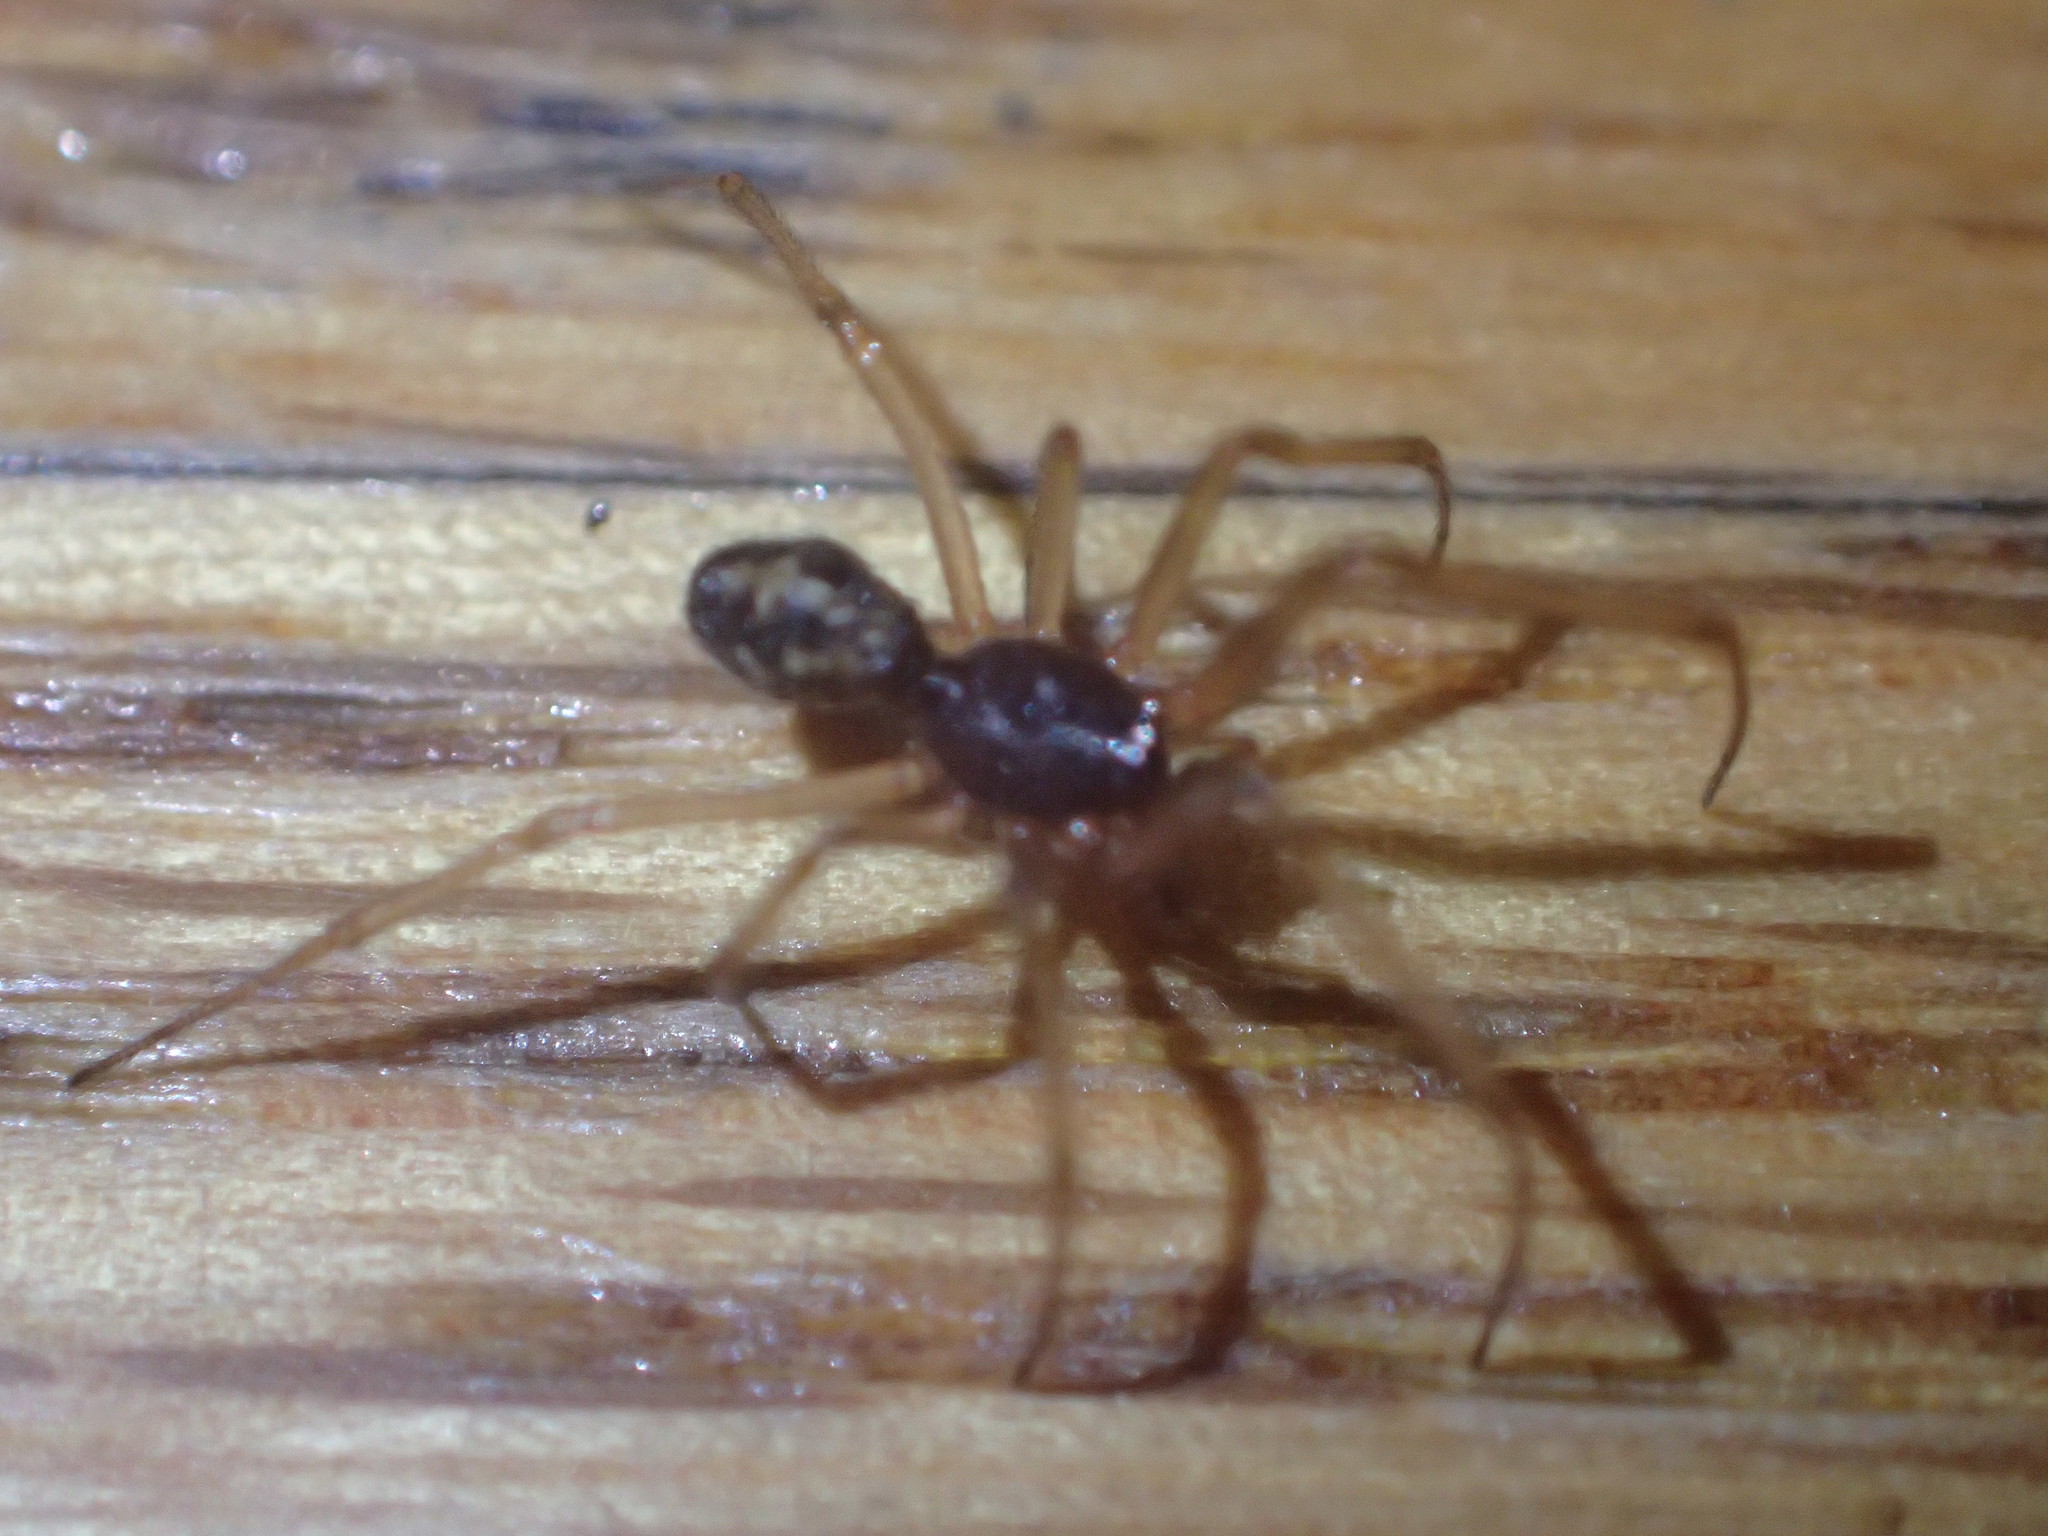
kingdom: Animalia
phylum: Arthropoda
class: Arachnida
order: Araneae
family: Theridiidae
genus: Steatoda
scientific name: Steatoda triangulosa
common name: Triangulate bud spider
